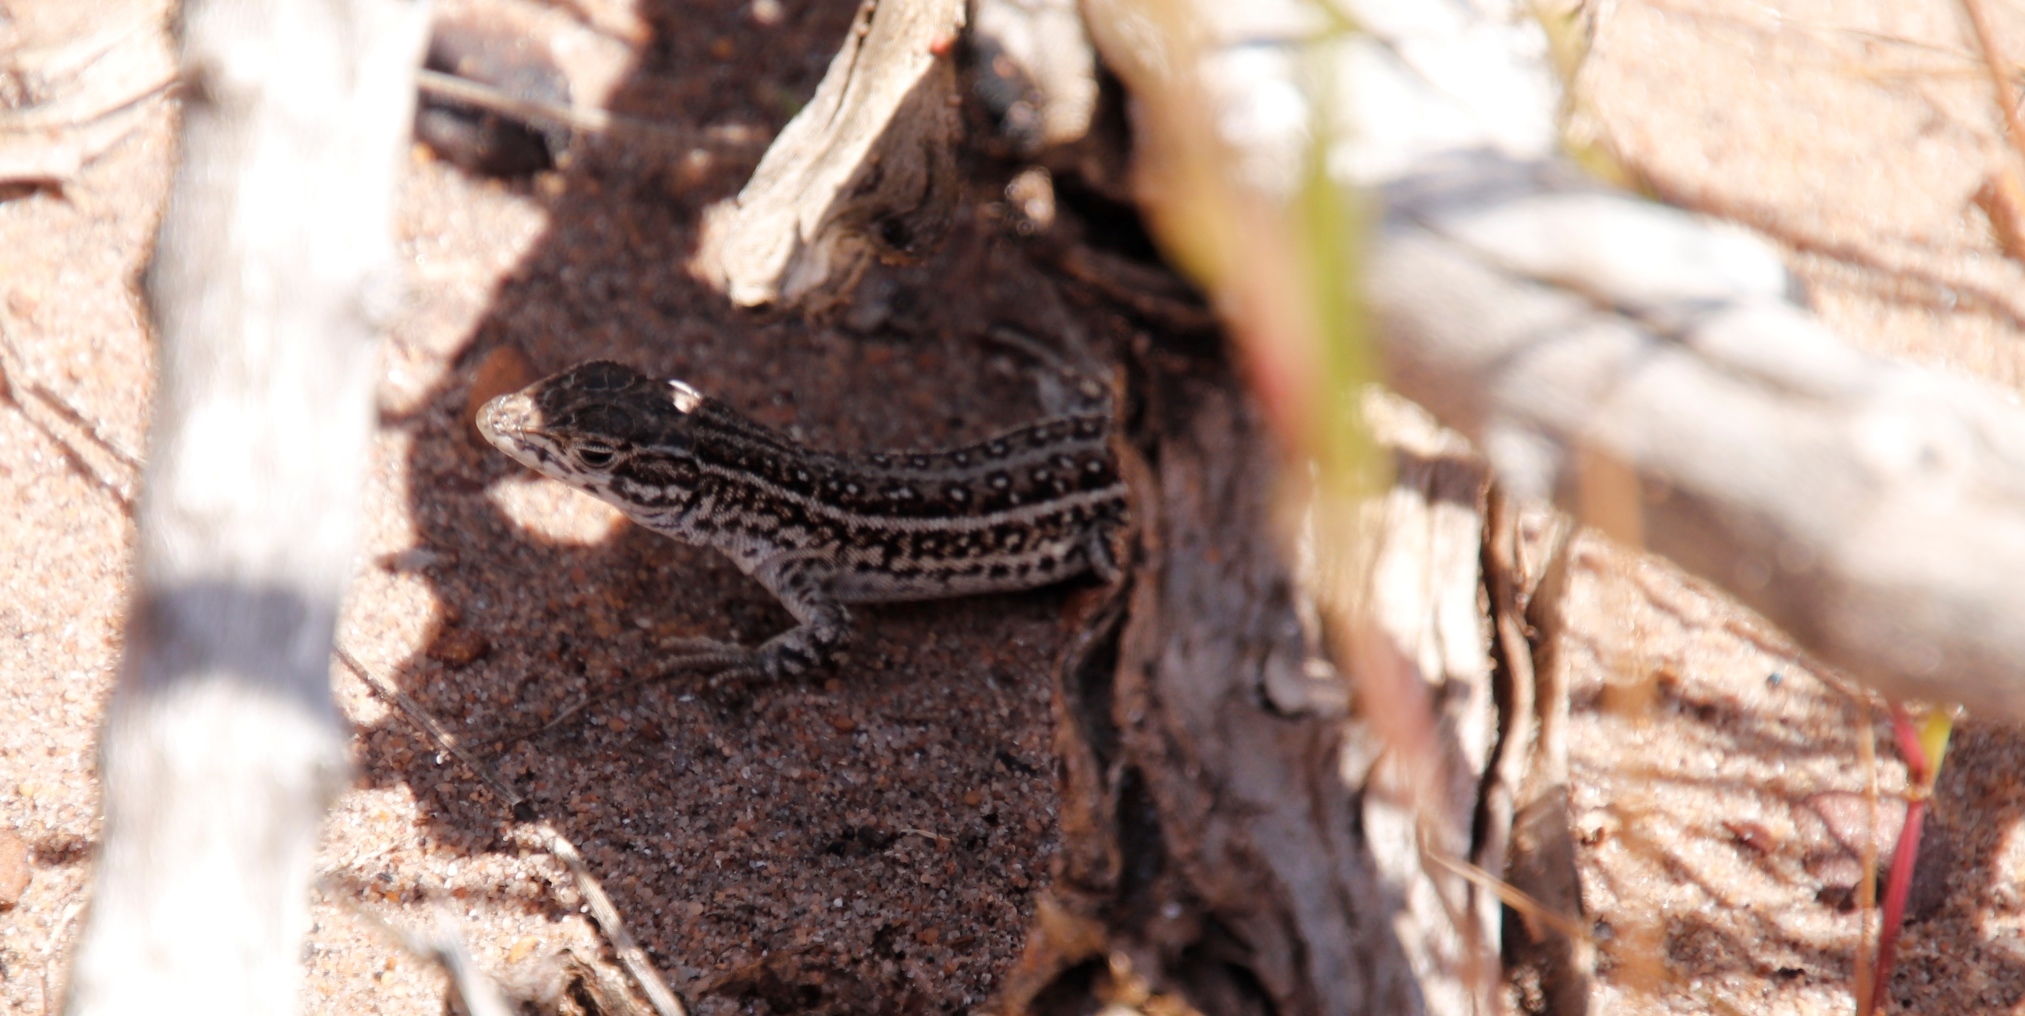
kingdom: Animalia
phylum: Chordata
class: Squamata
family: Lacertidae
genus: Meroles
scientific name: Meroles knoxii
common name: Knox's desert lizard
